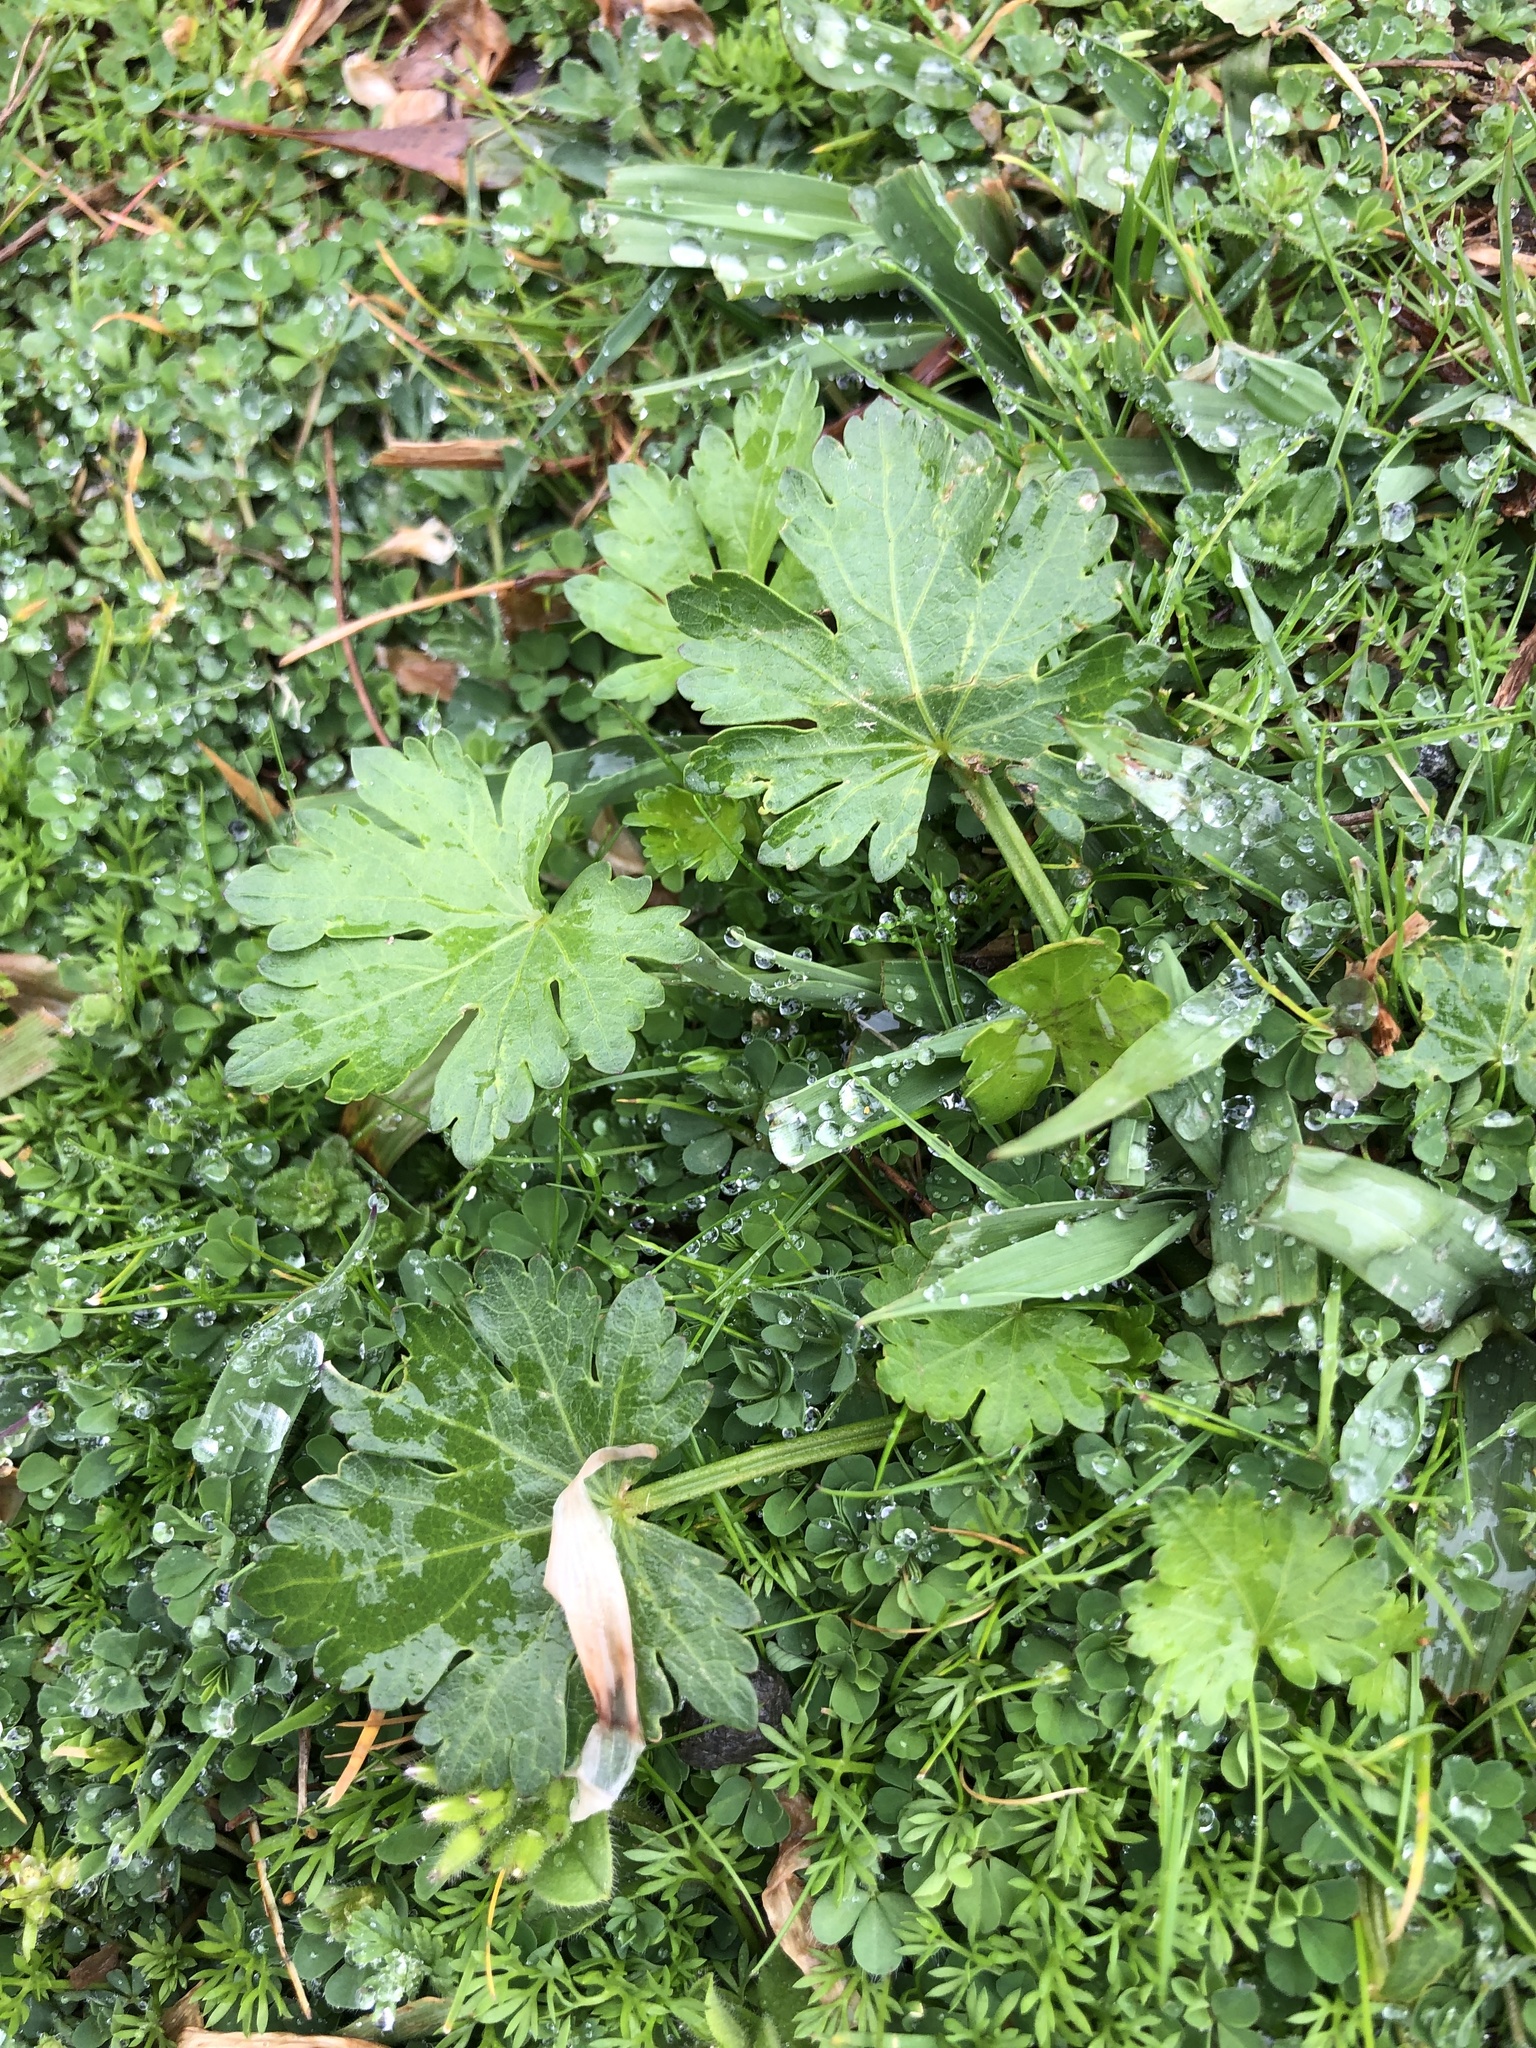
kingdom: Plantae
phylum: Tracheophyta
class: Magnoliopsida
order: Malvales
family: Malvaceae
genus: Modiola
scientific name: Modiola caroliniana
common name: Carolina bristlemallow
